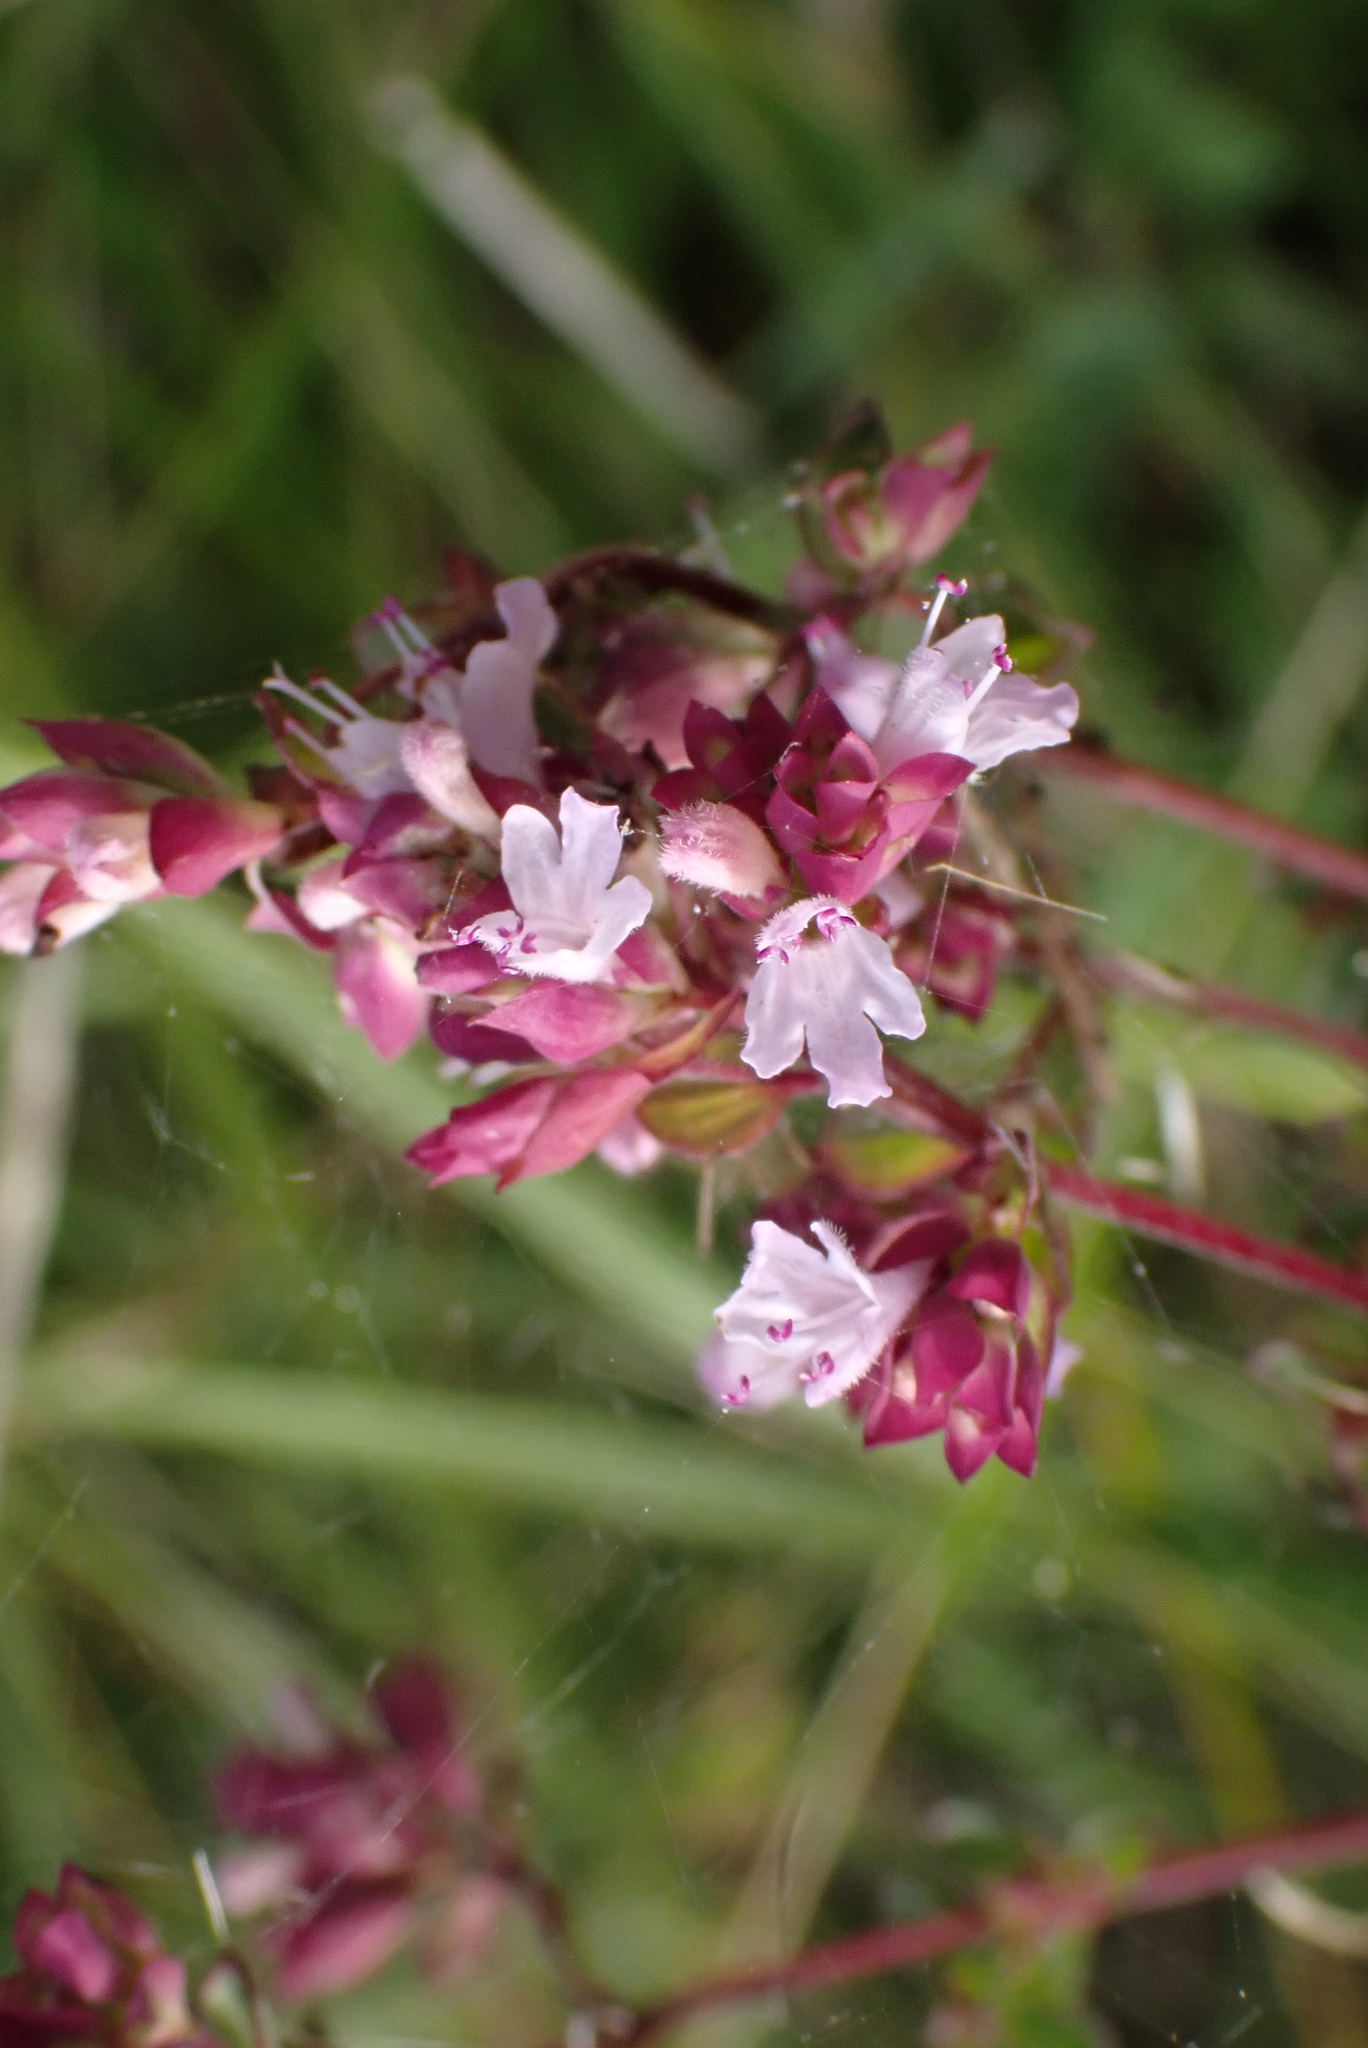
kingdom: Plantae
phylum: Tracheophyta
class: Magnoliopsida
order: Lamiales
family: Lamiaceae
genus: Origanum
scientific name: Origanum vulgare
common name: Wild marjoram
